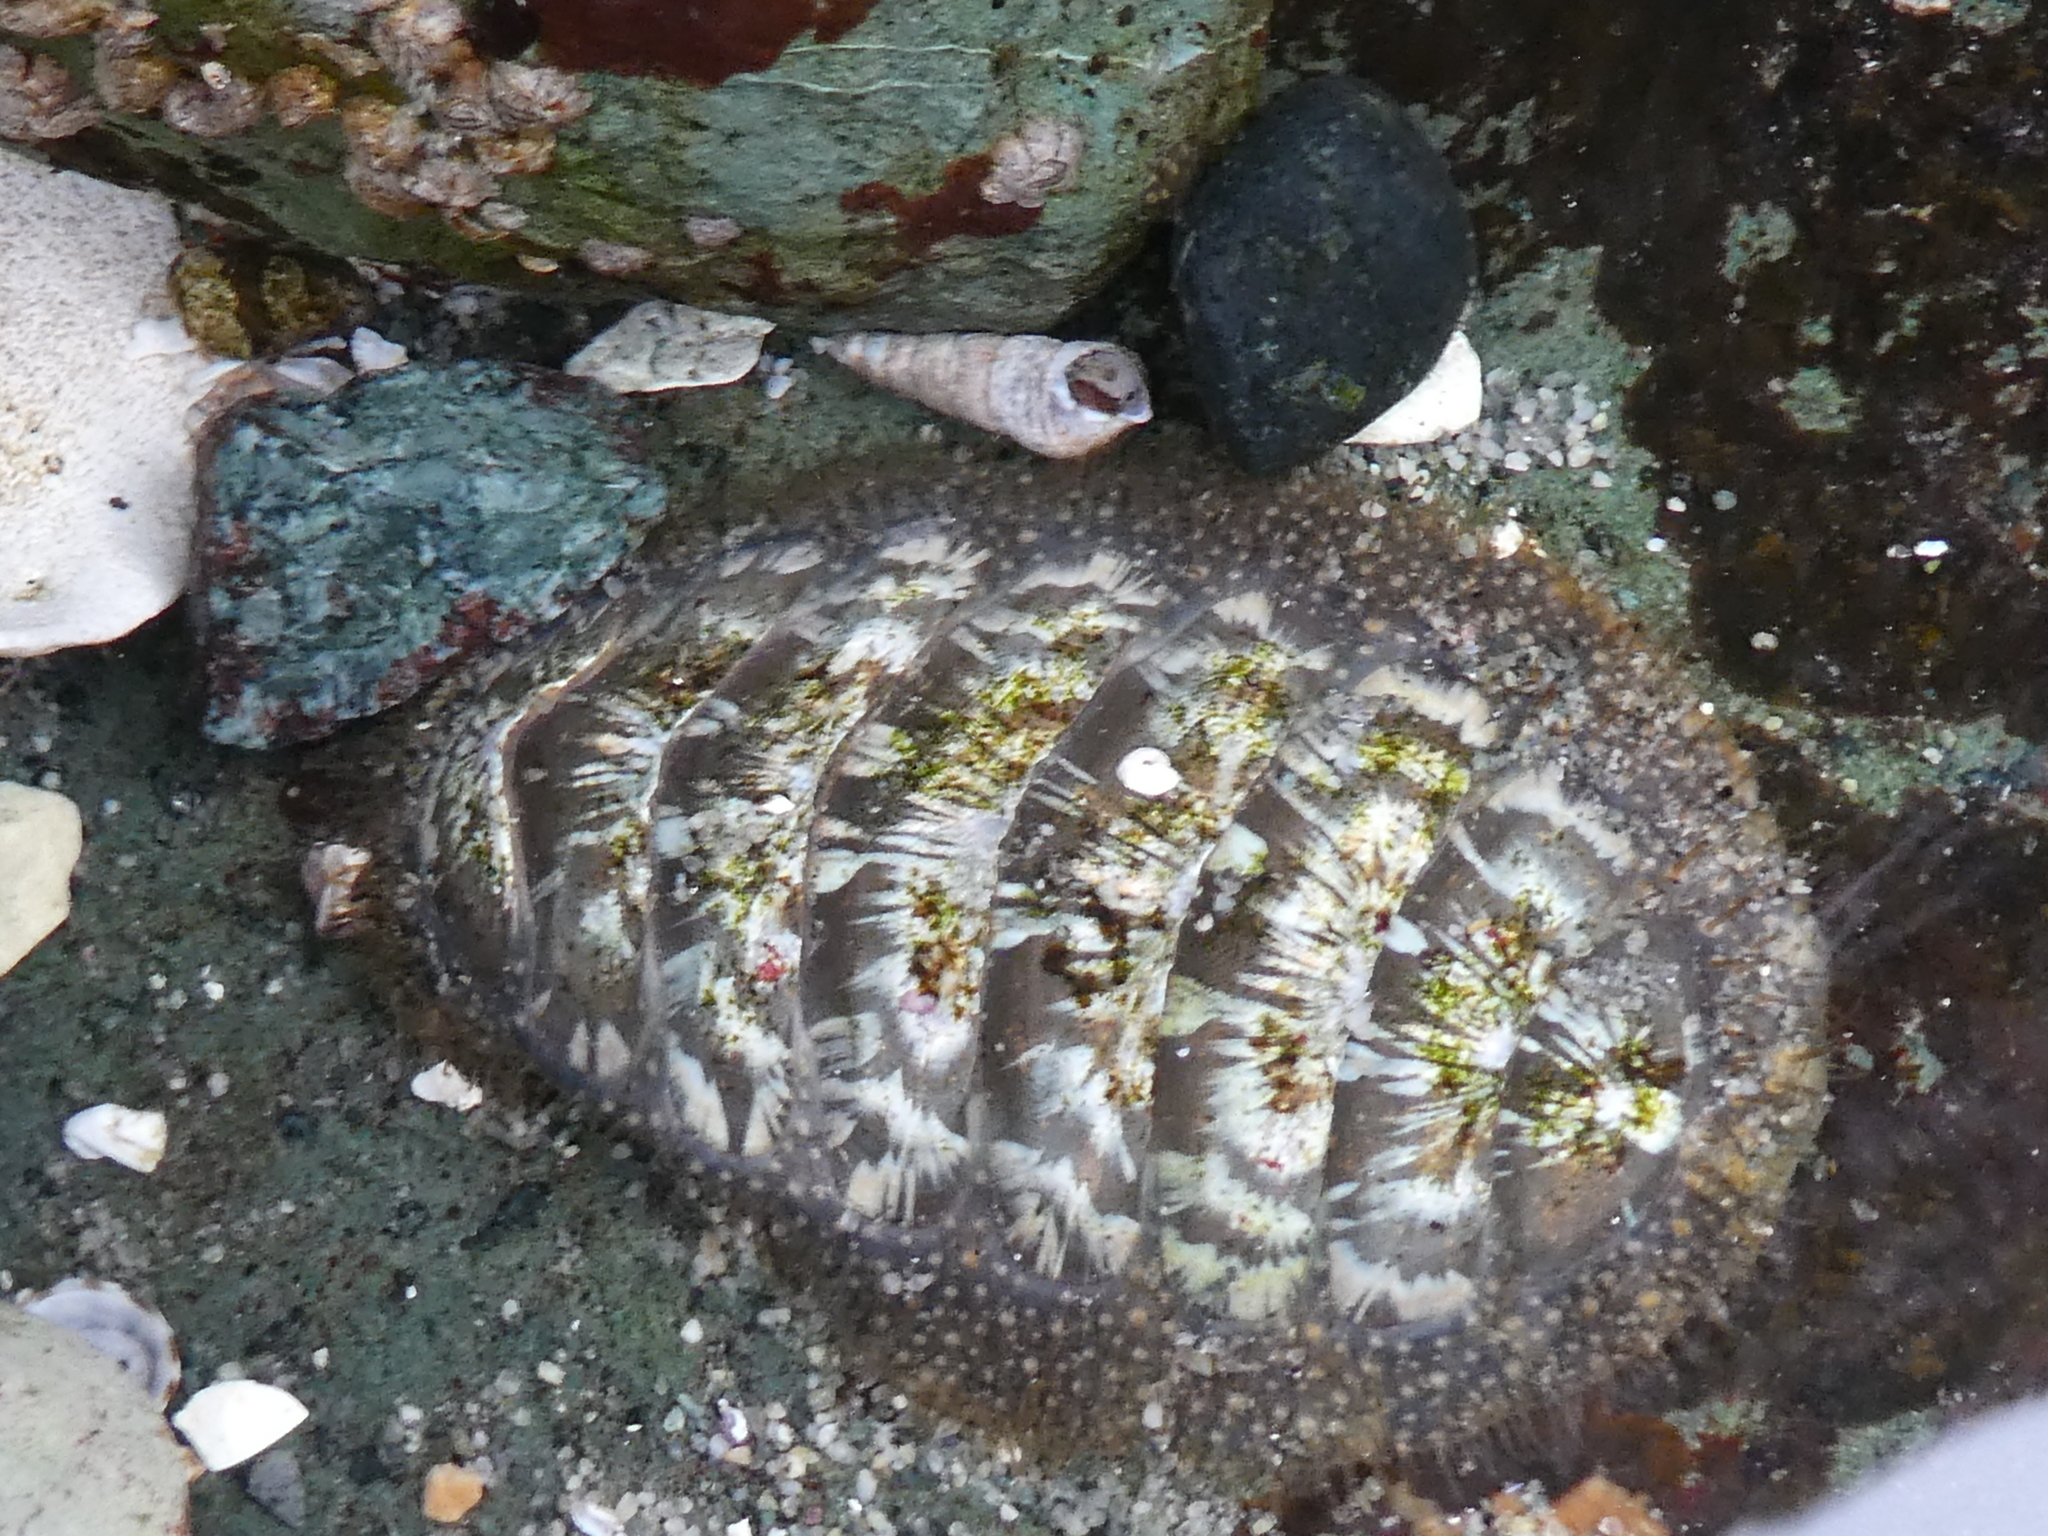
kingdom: Animalia
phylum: Mollusca
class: Polyplacophora
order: Chitonida
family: Mopaliidae
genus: Mopalia
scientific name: Mopalia lignosa
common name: Woody chiton
